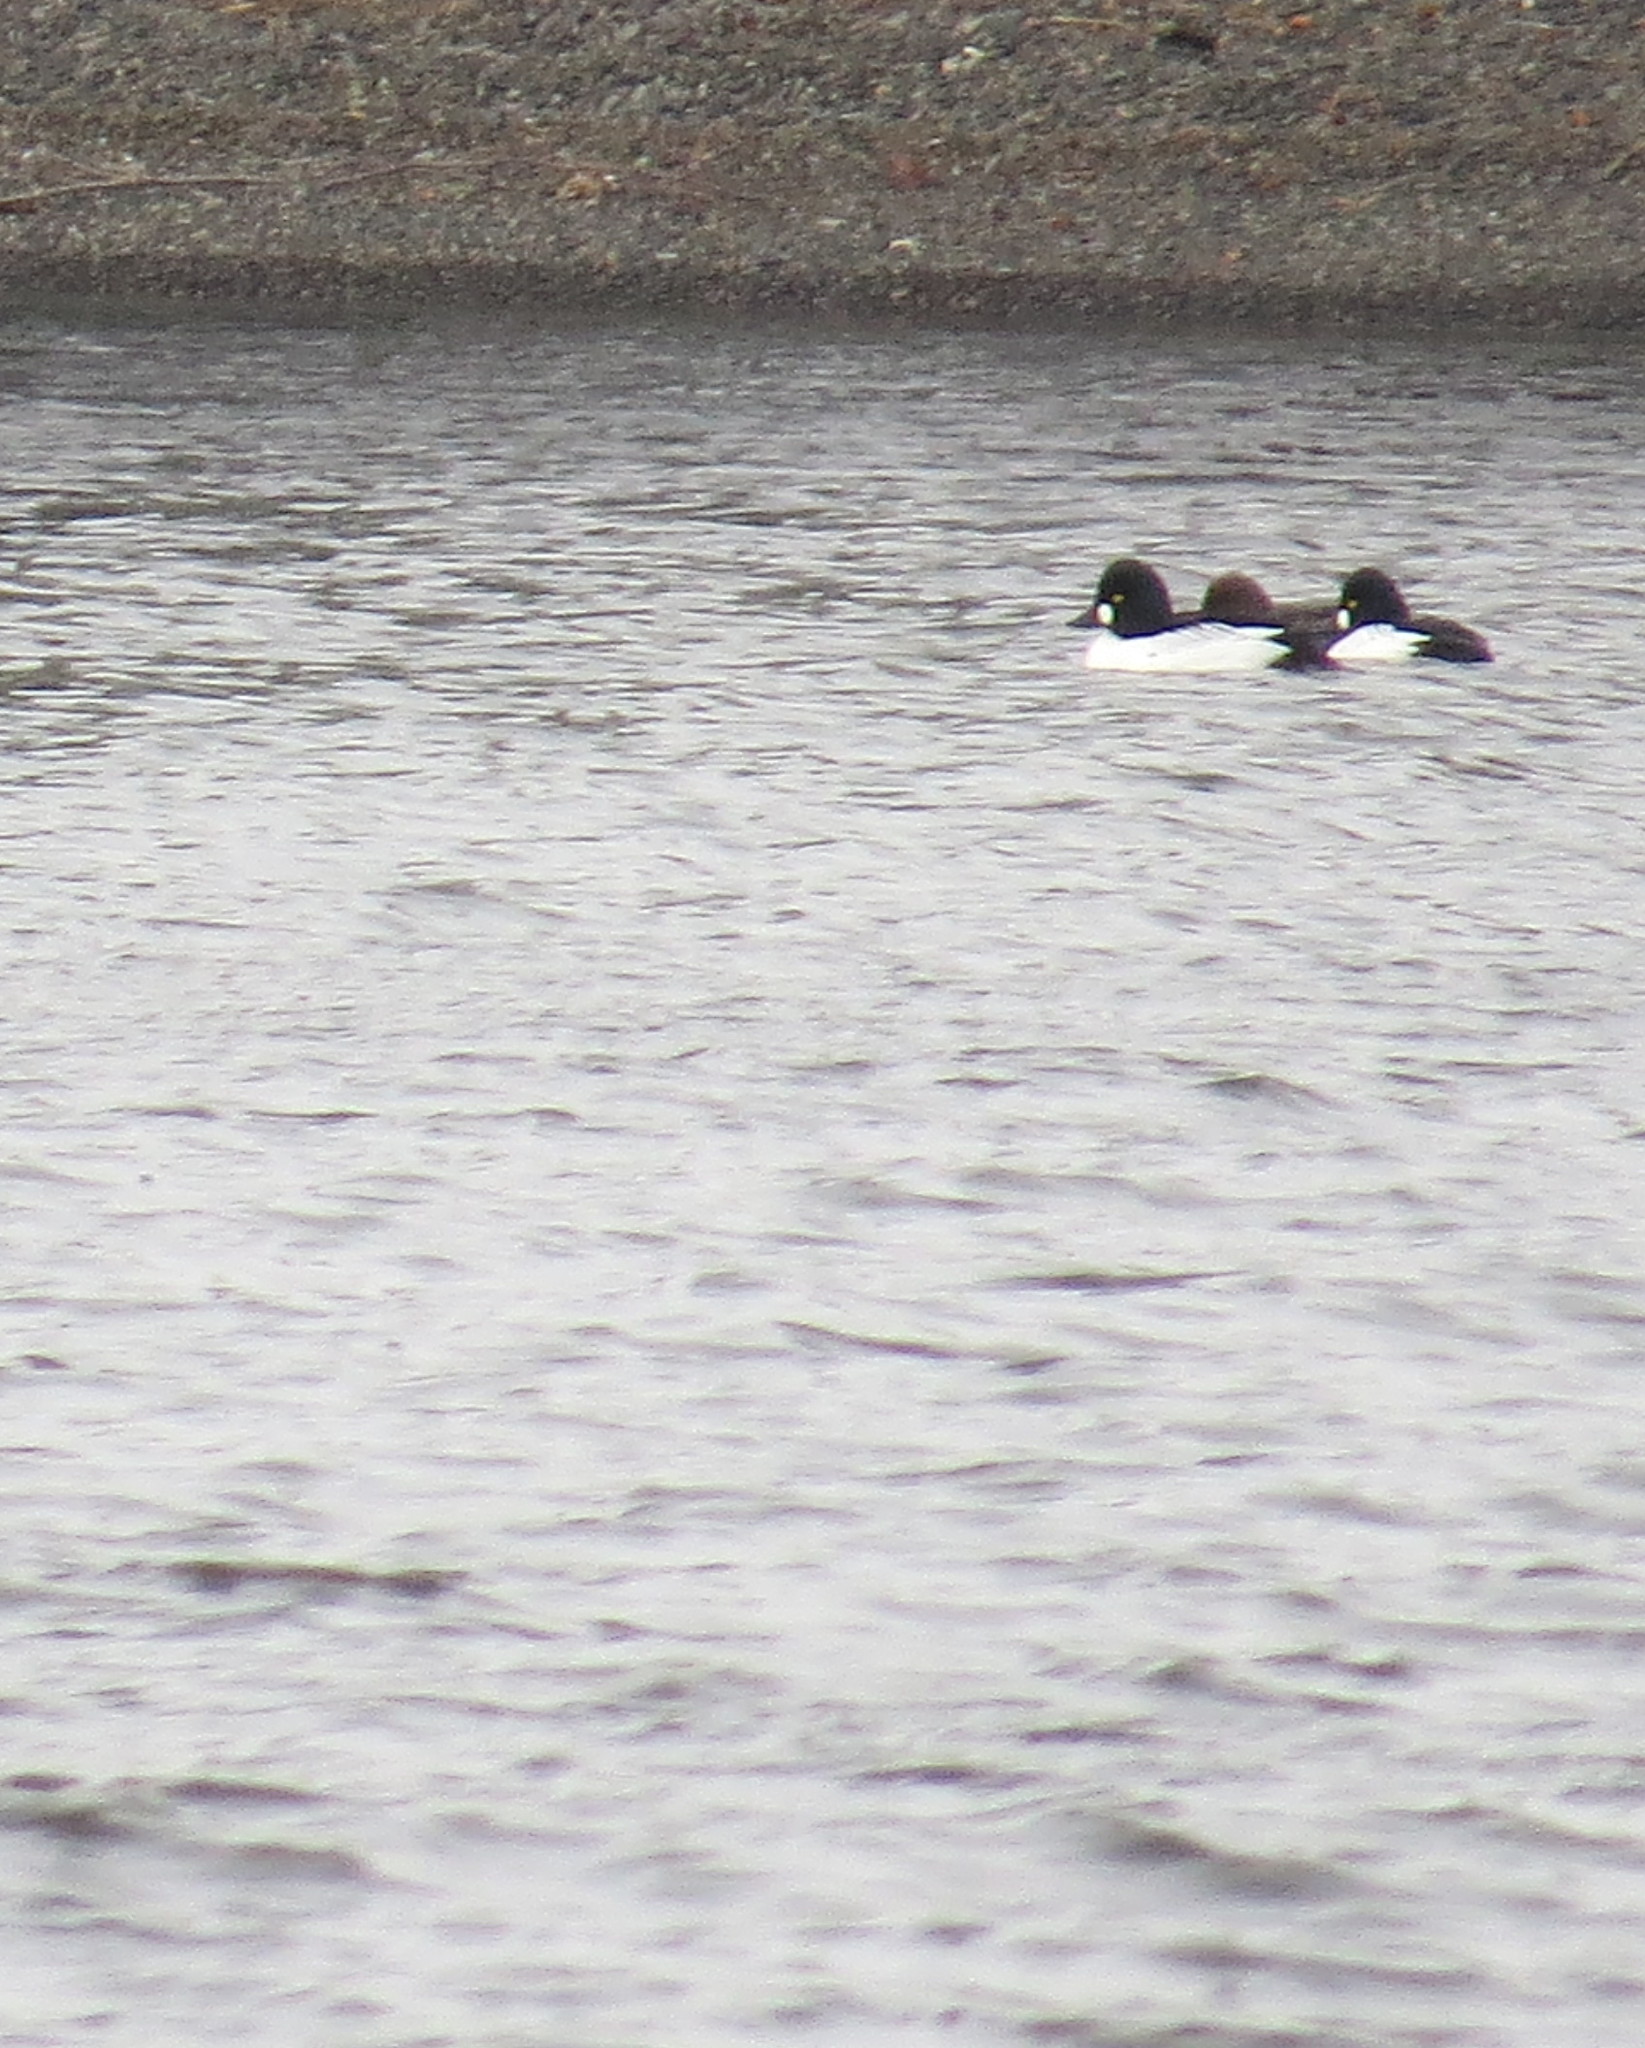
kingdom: Animalia
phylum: Chordata
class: Aves
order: Anseriformes
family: Anatidae
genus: Bucephala
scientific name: Bucephala clangula
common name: Common goldeneye
